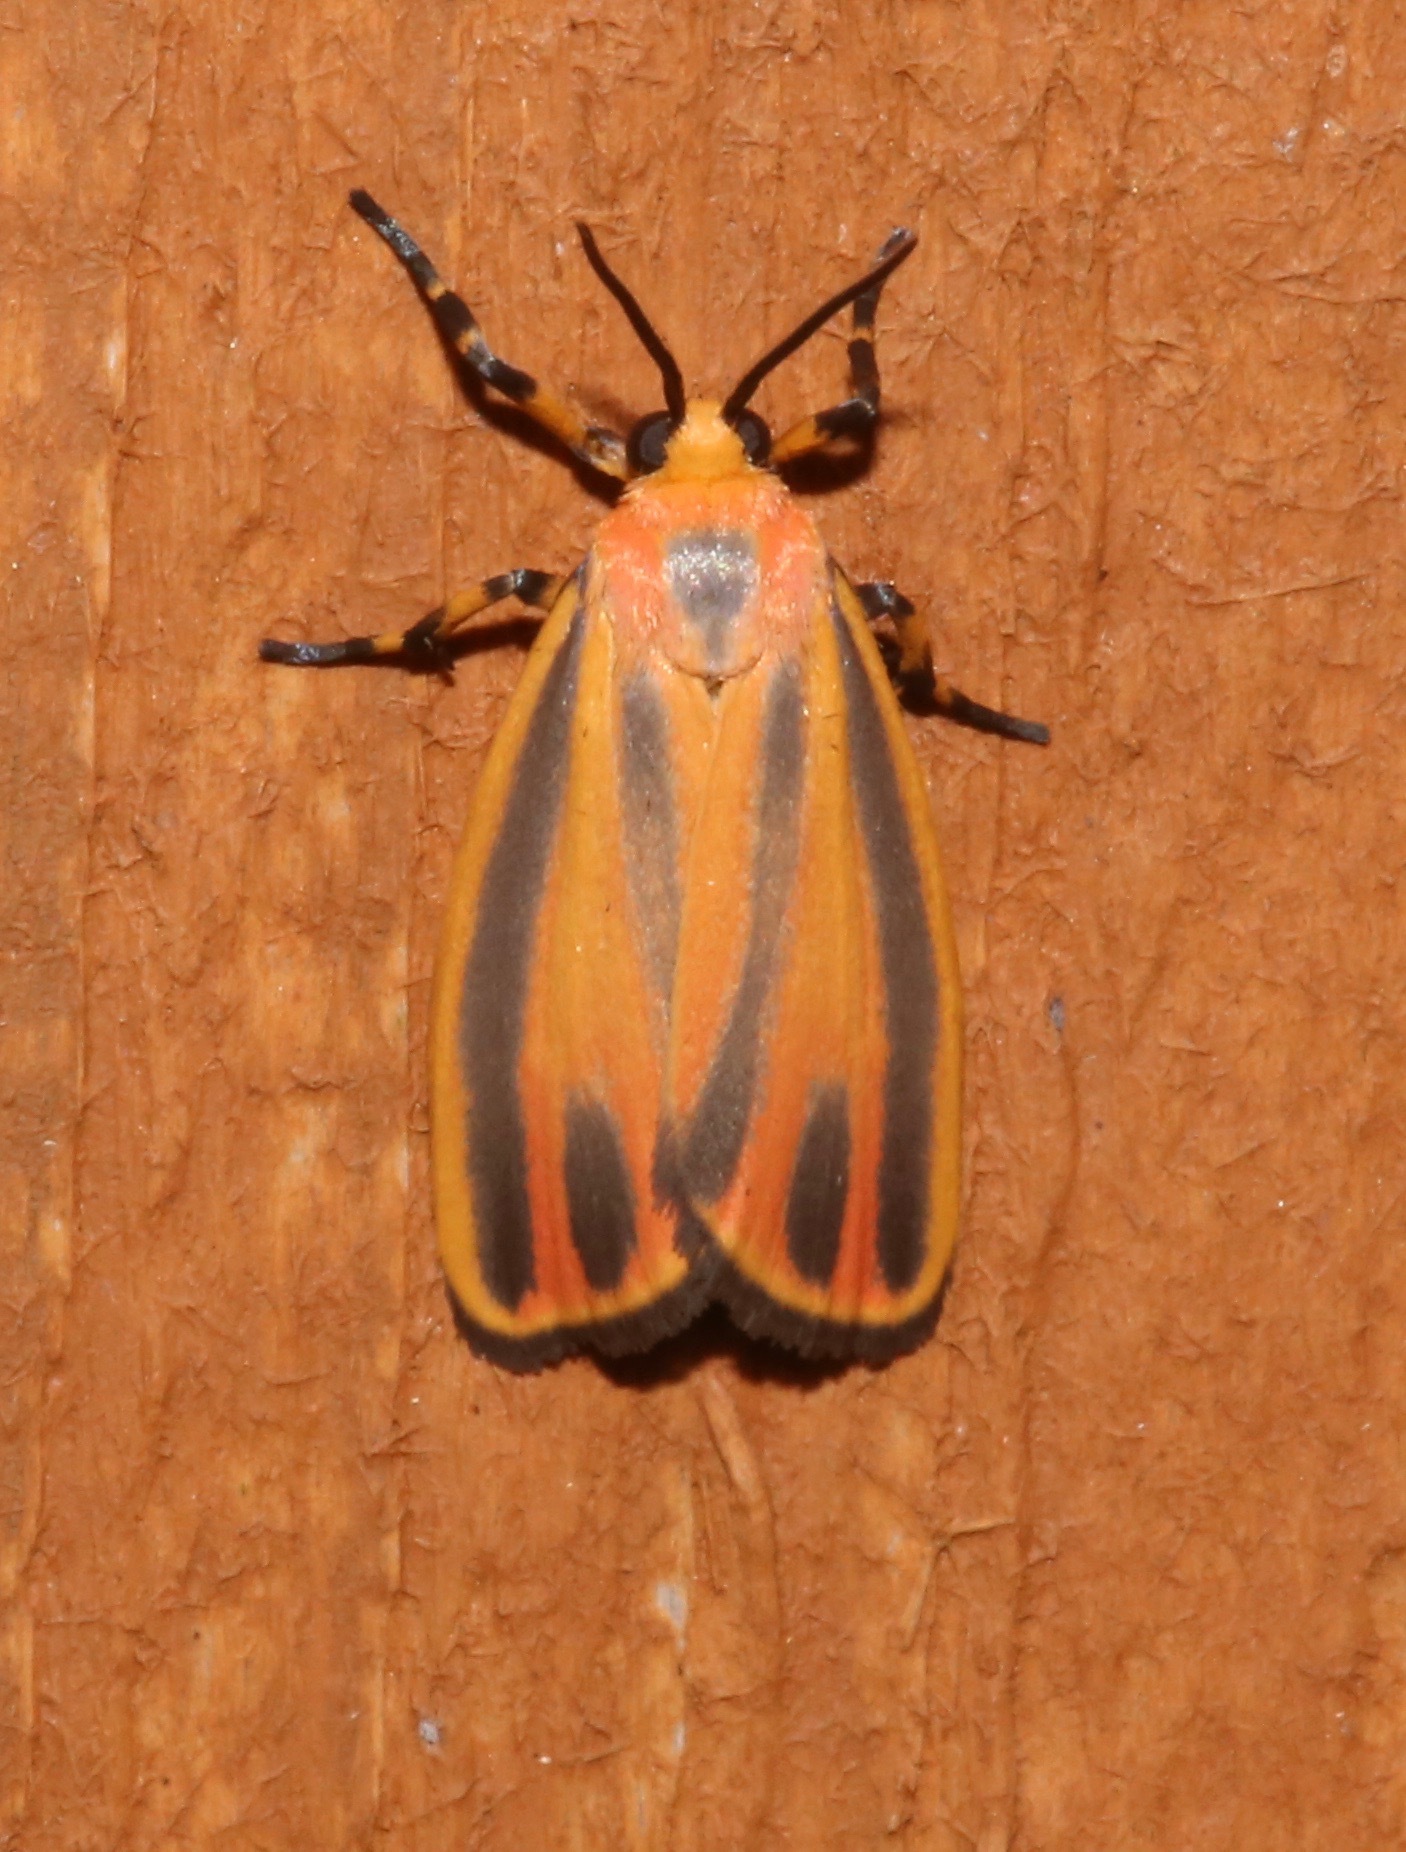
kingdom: Animalia
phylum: Arthropoda
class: Insecta
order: Lepidoptera
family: Erebidae
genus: Hypoprepia
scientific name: Hypoprepia fucosa
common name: Painted lichen moth
